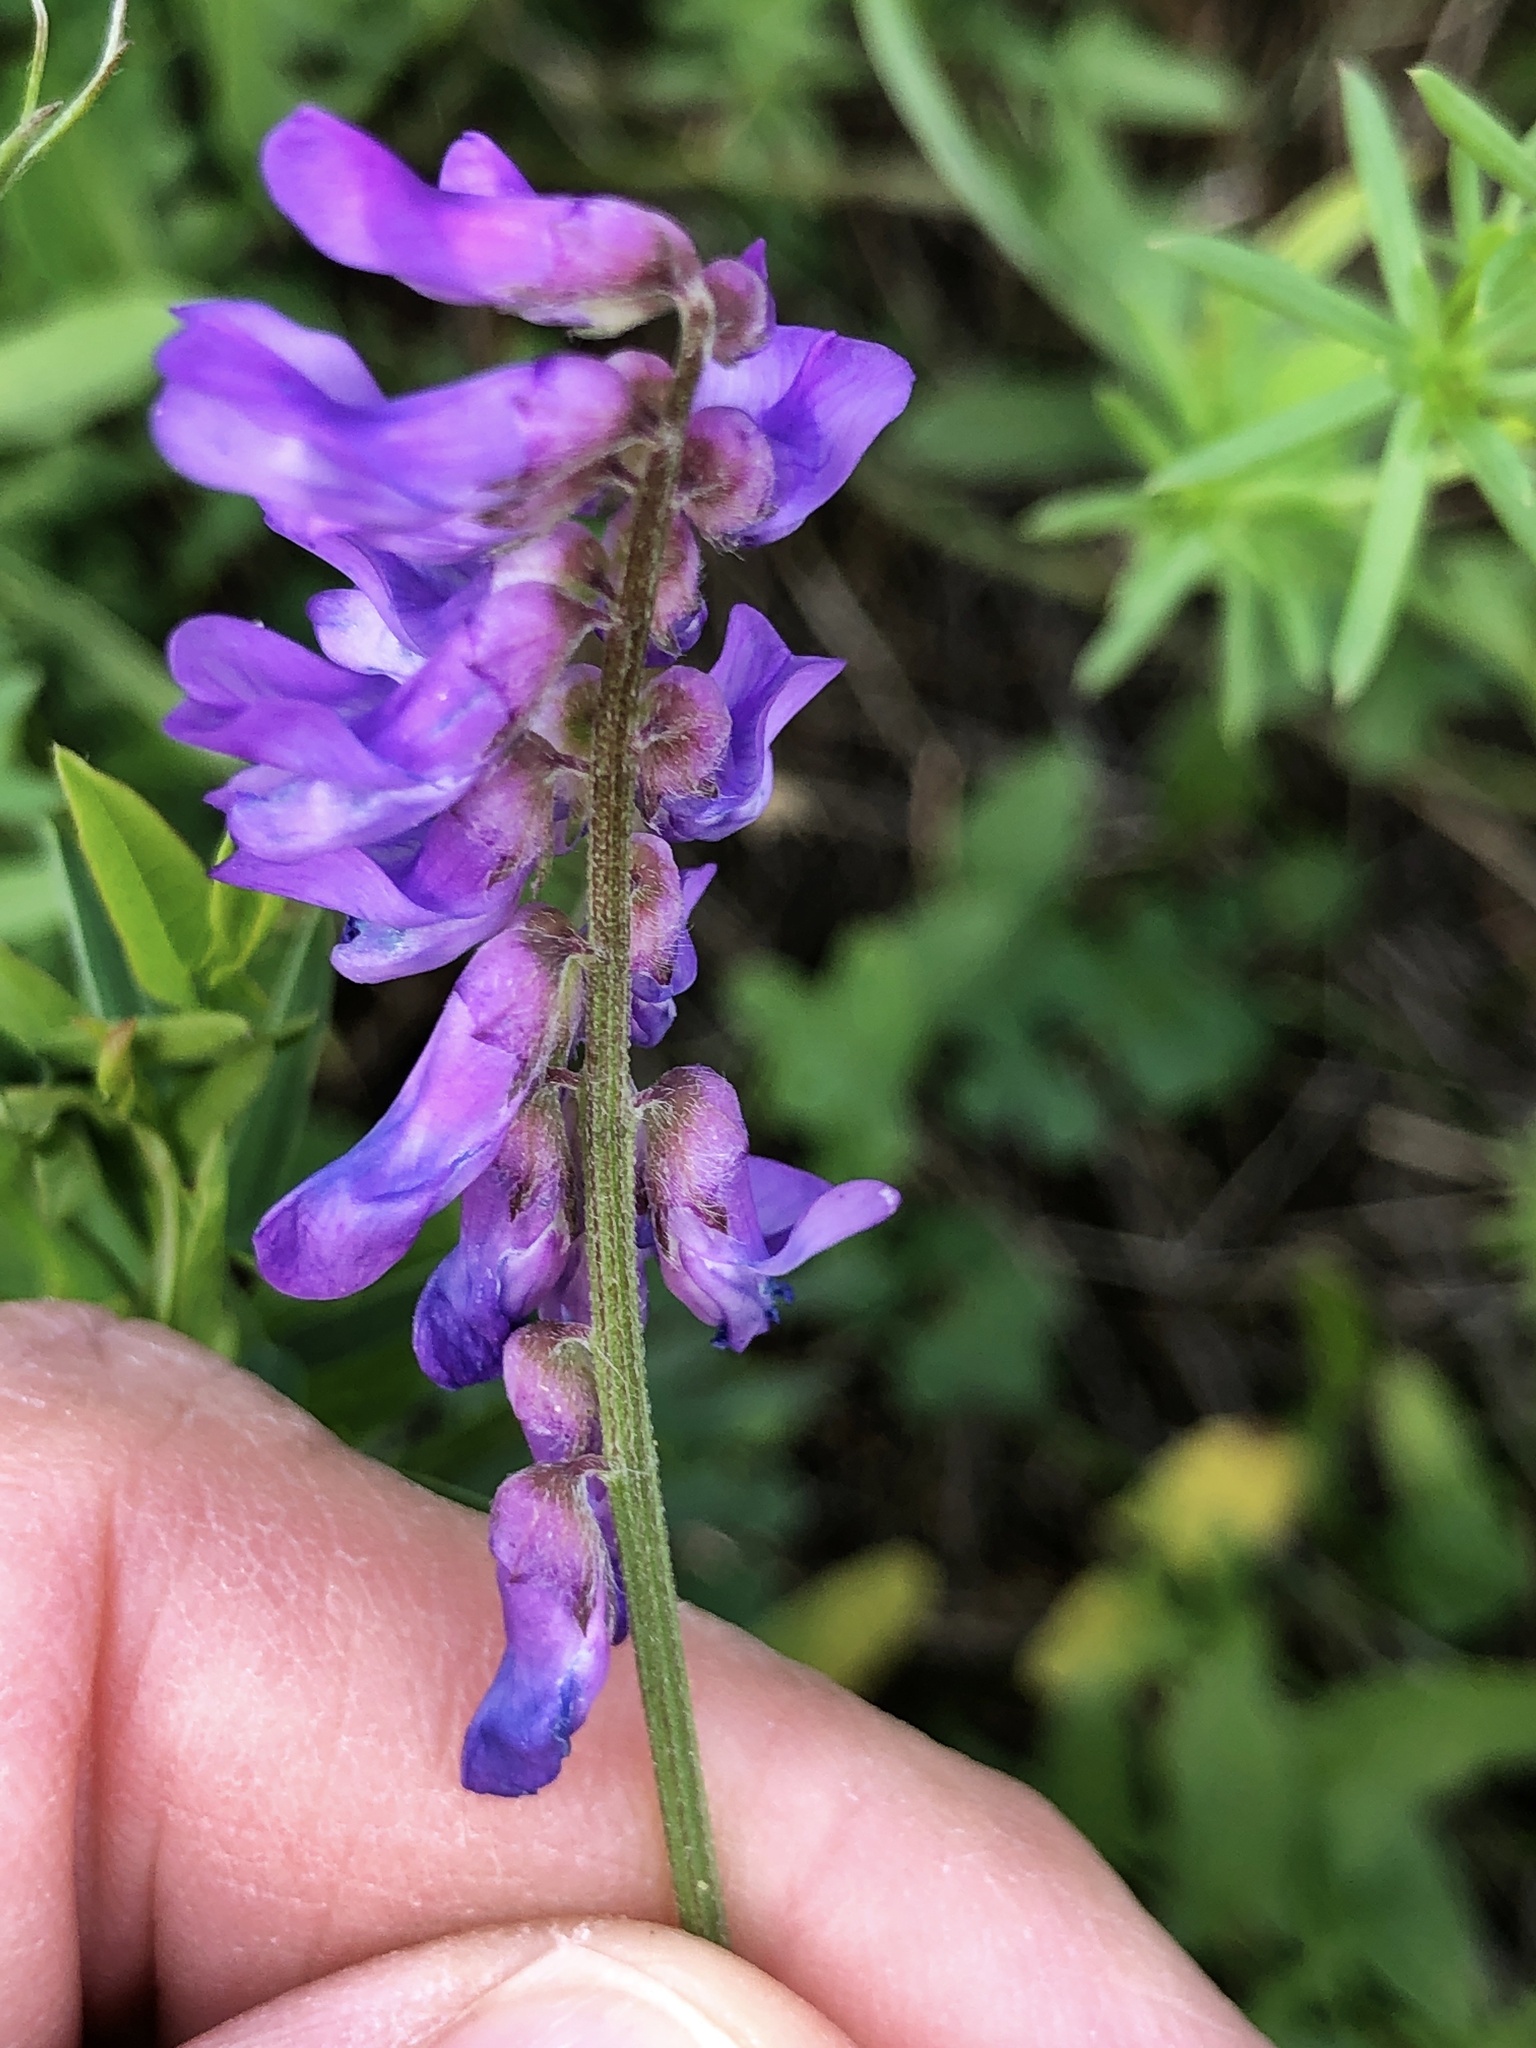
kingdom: Plantae
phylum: Tracheophyta
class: Magnoliopsida
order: Fabales
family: Fabaceae
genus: Vicia
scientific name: Vicia cracca
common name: Bird vetch
